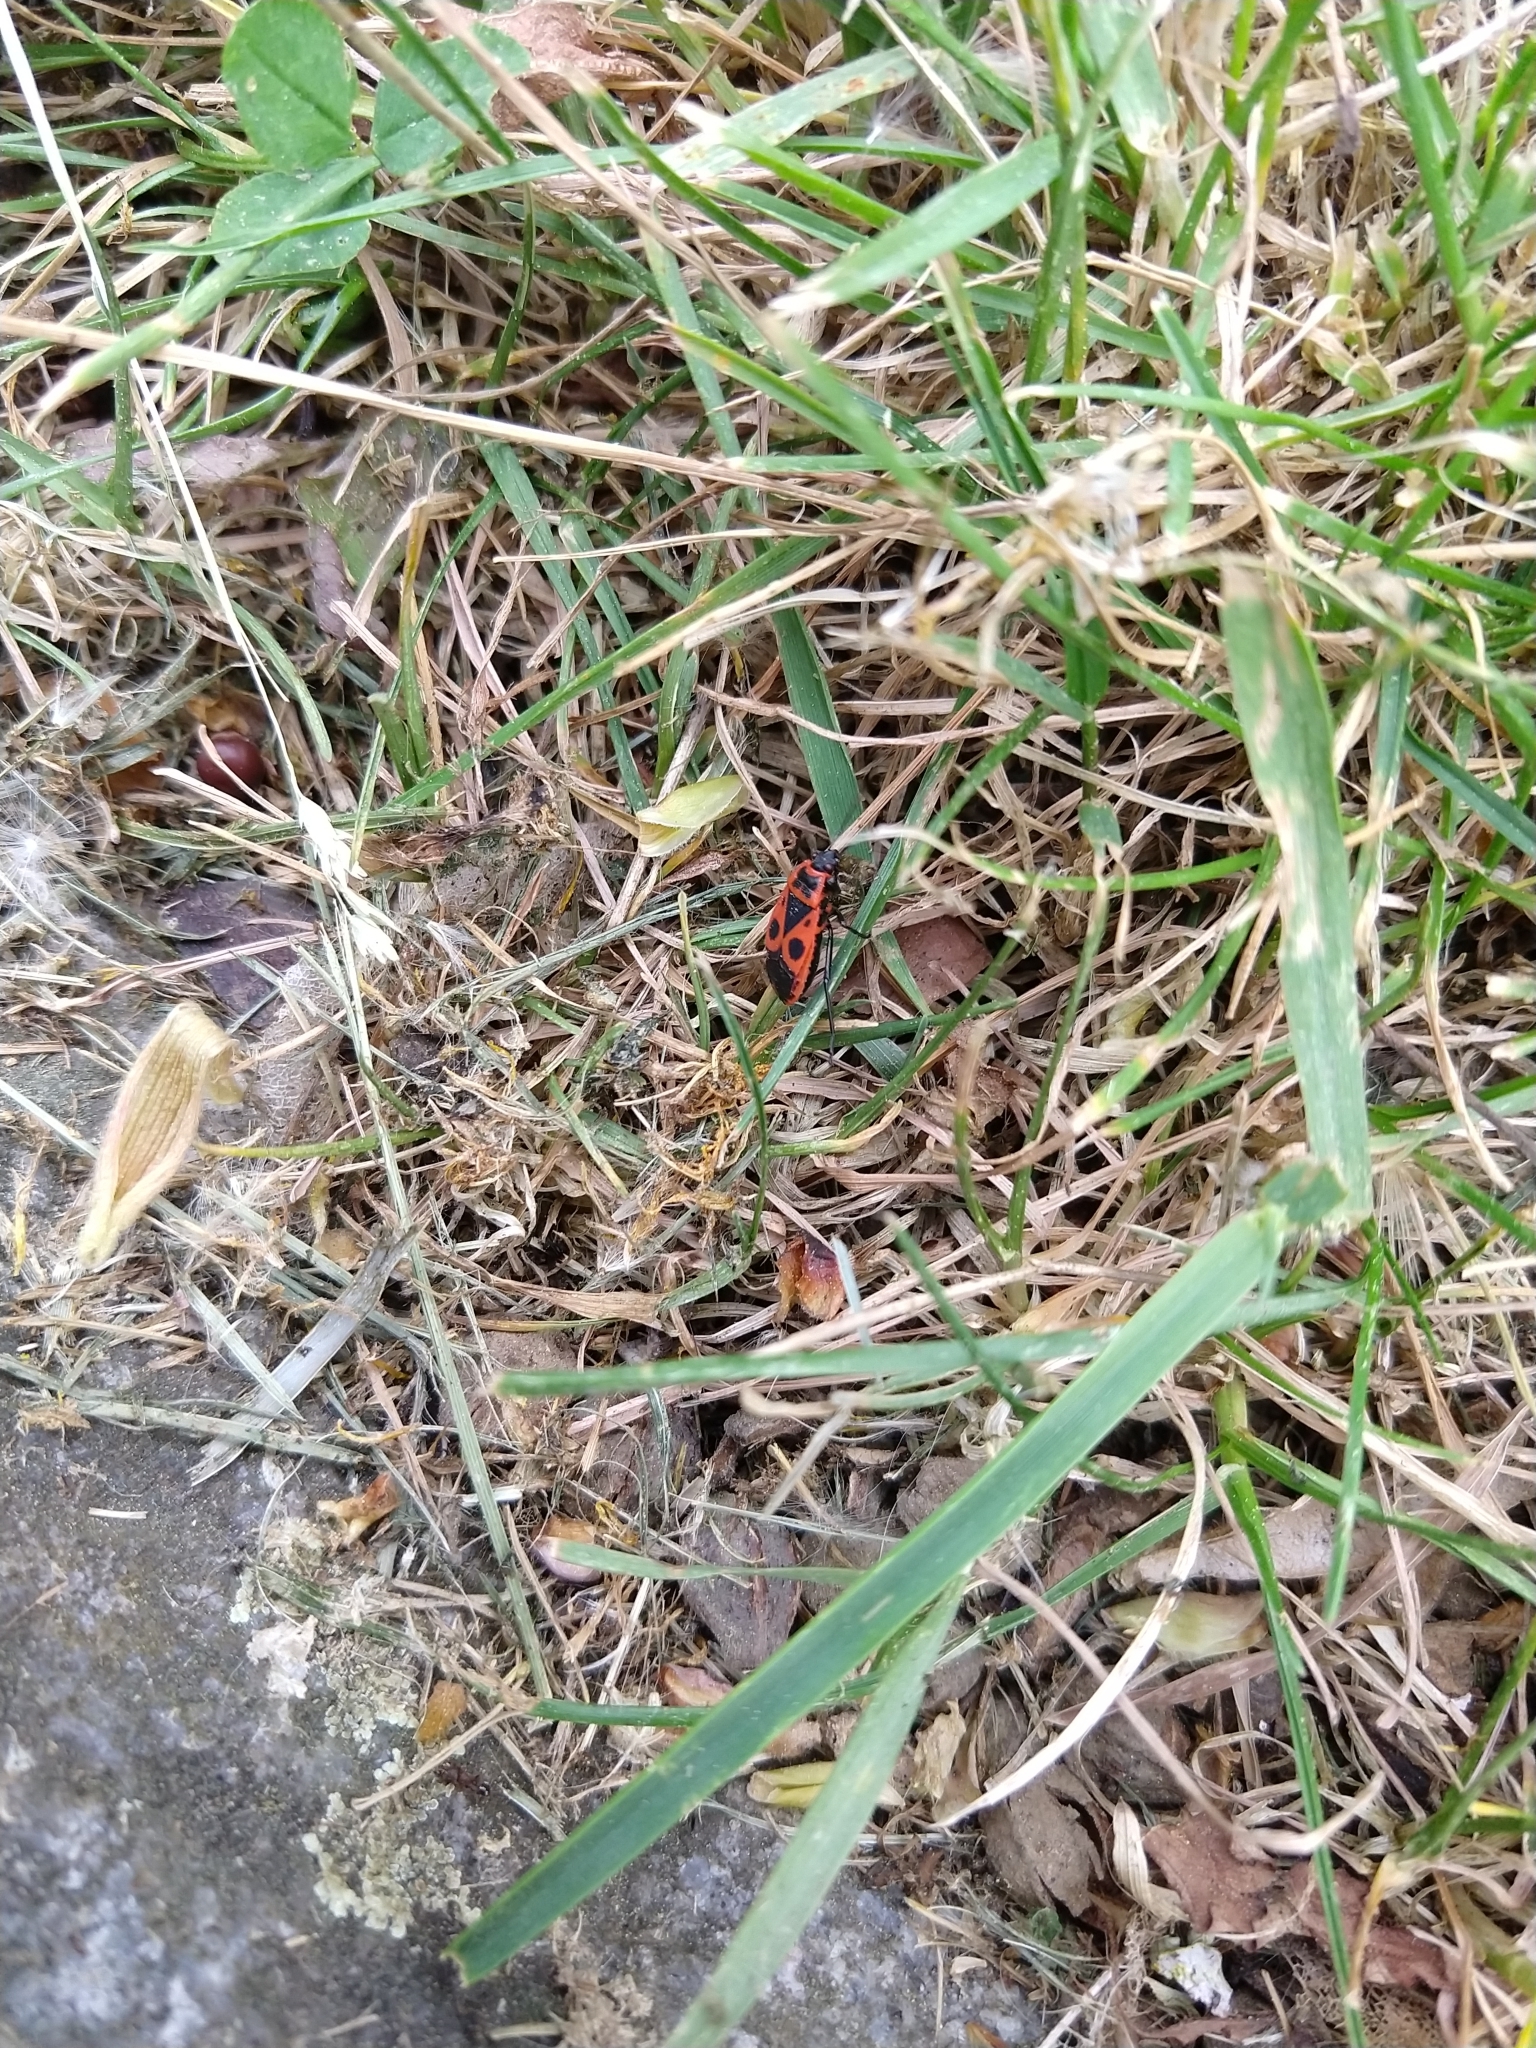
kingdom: Animalia
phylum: Arthropoda
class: Insecta
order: Hemiptera
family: Pyrrhocoridae
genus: Pyrrhocoris
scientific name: Pyrrhocoris apterus
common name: Firebug
